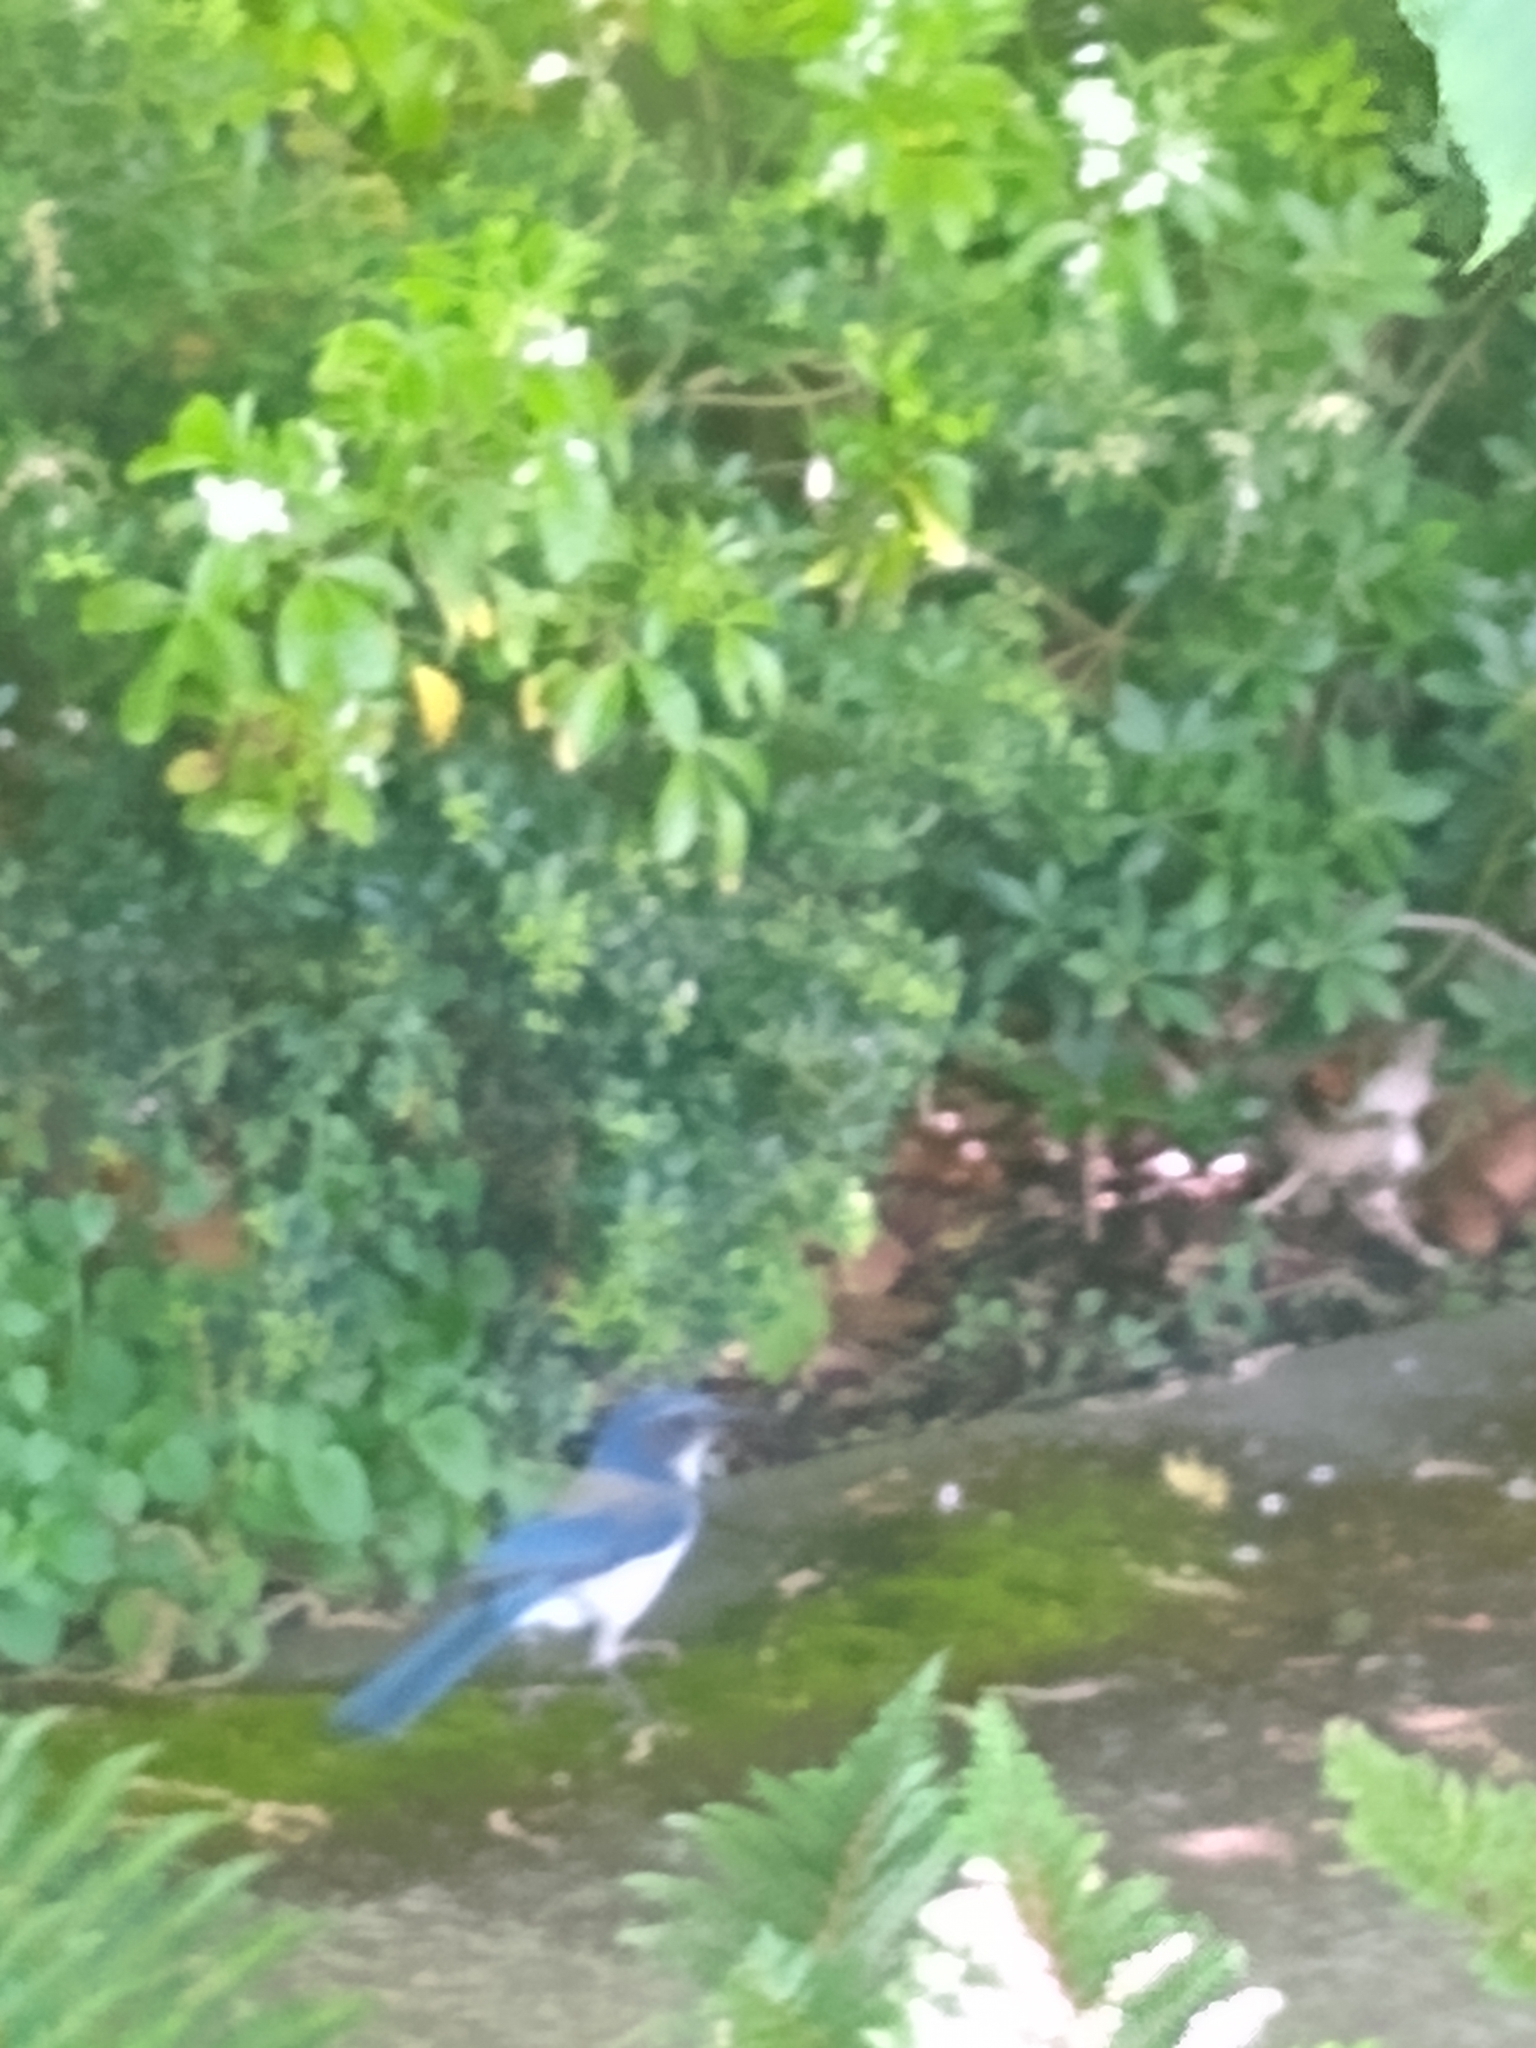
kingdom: Animalia
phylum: Chordata
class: Aves
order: Passeriformes
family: Corvidae
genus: Aphelocoma
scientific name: Aphelocoma californica
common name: California scrub-jay
